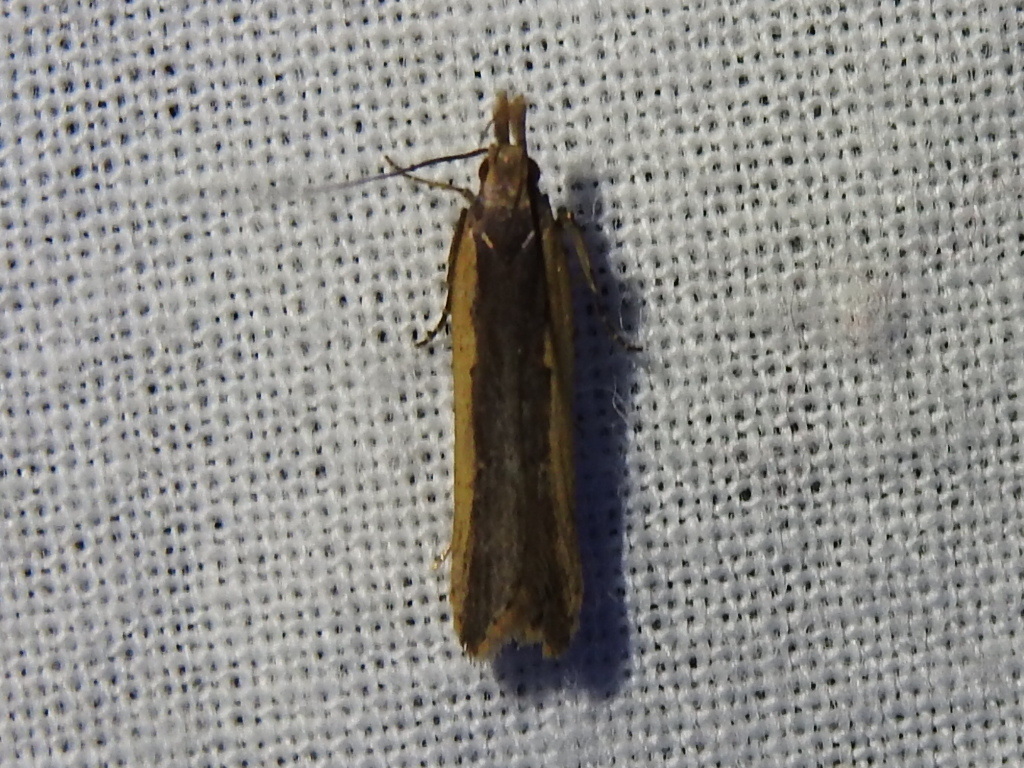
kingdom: Animalia
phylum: Arthropoda
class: Insecta
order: Lepidoptera
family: Gelechiidae
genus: Dichomeris
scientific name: Dichomeris ligulella
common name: Moth
